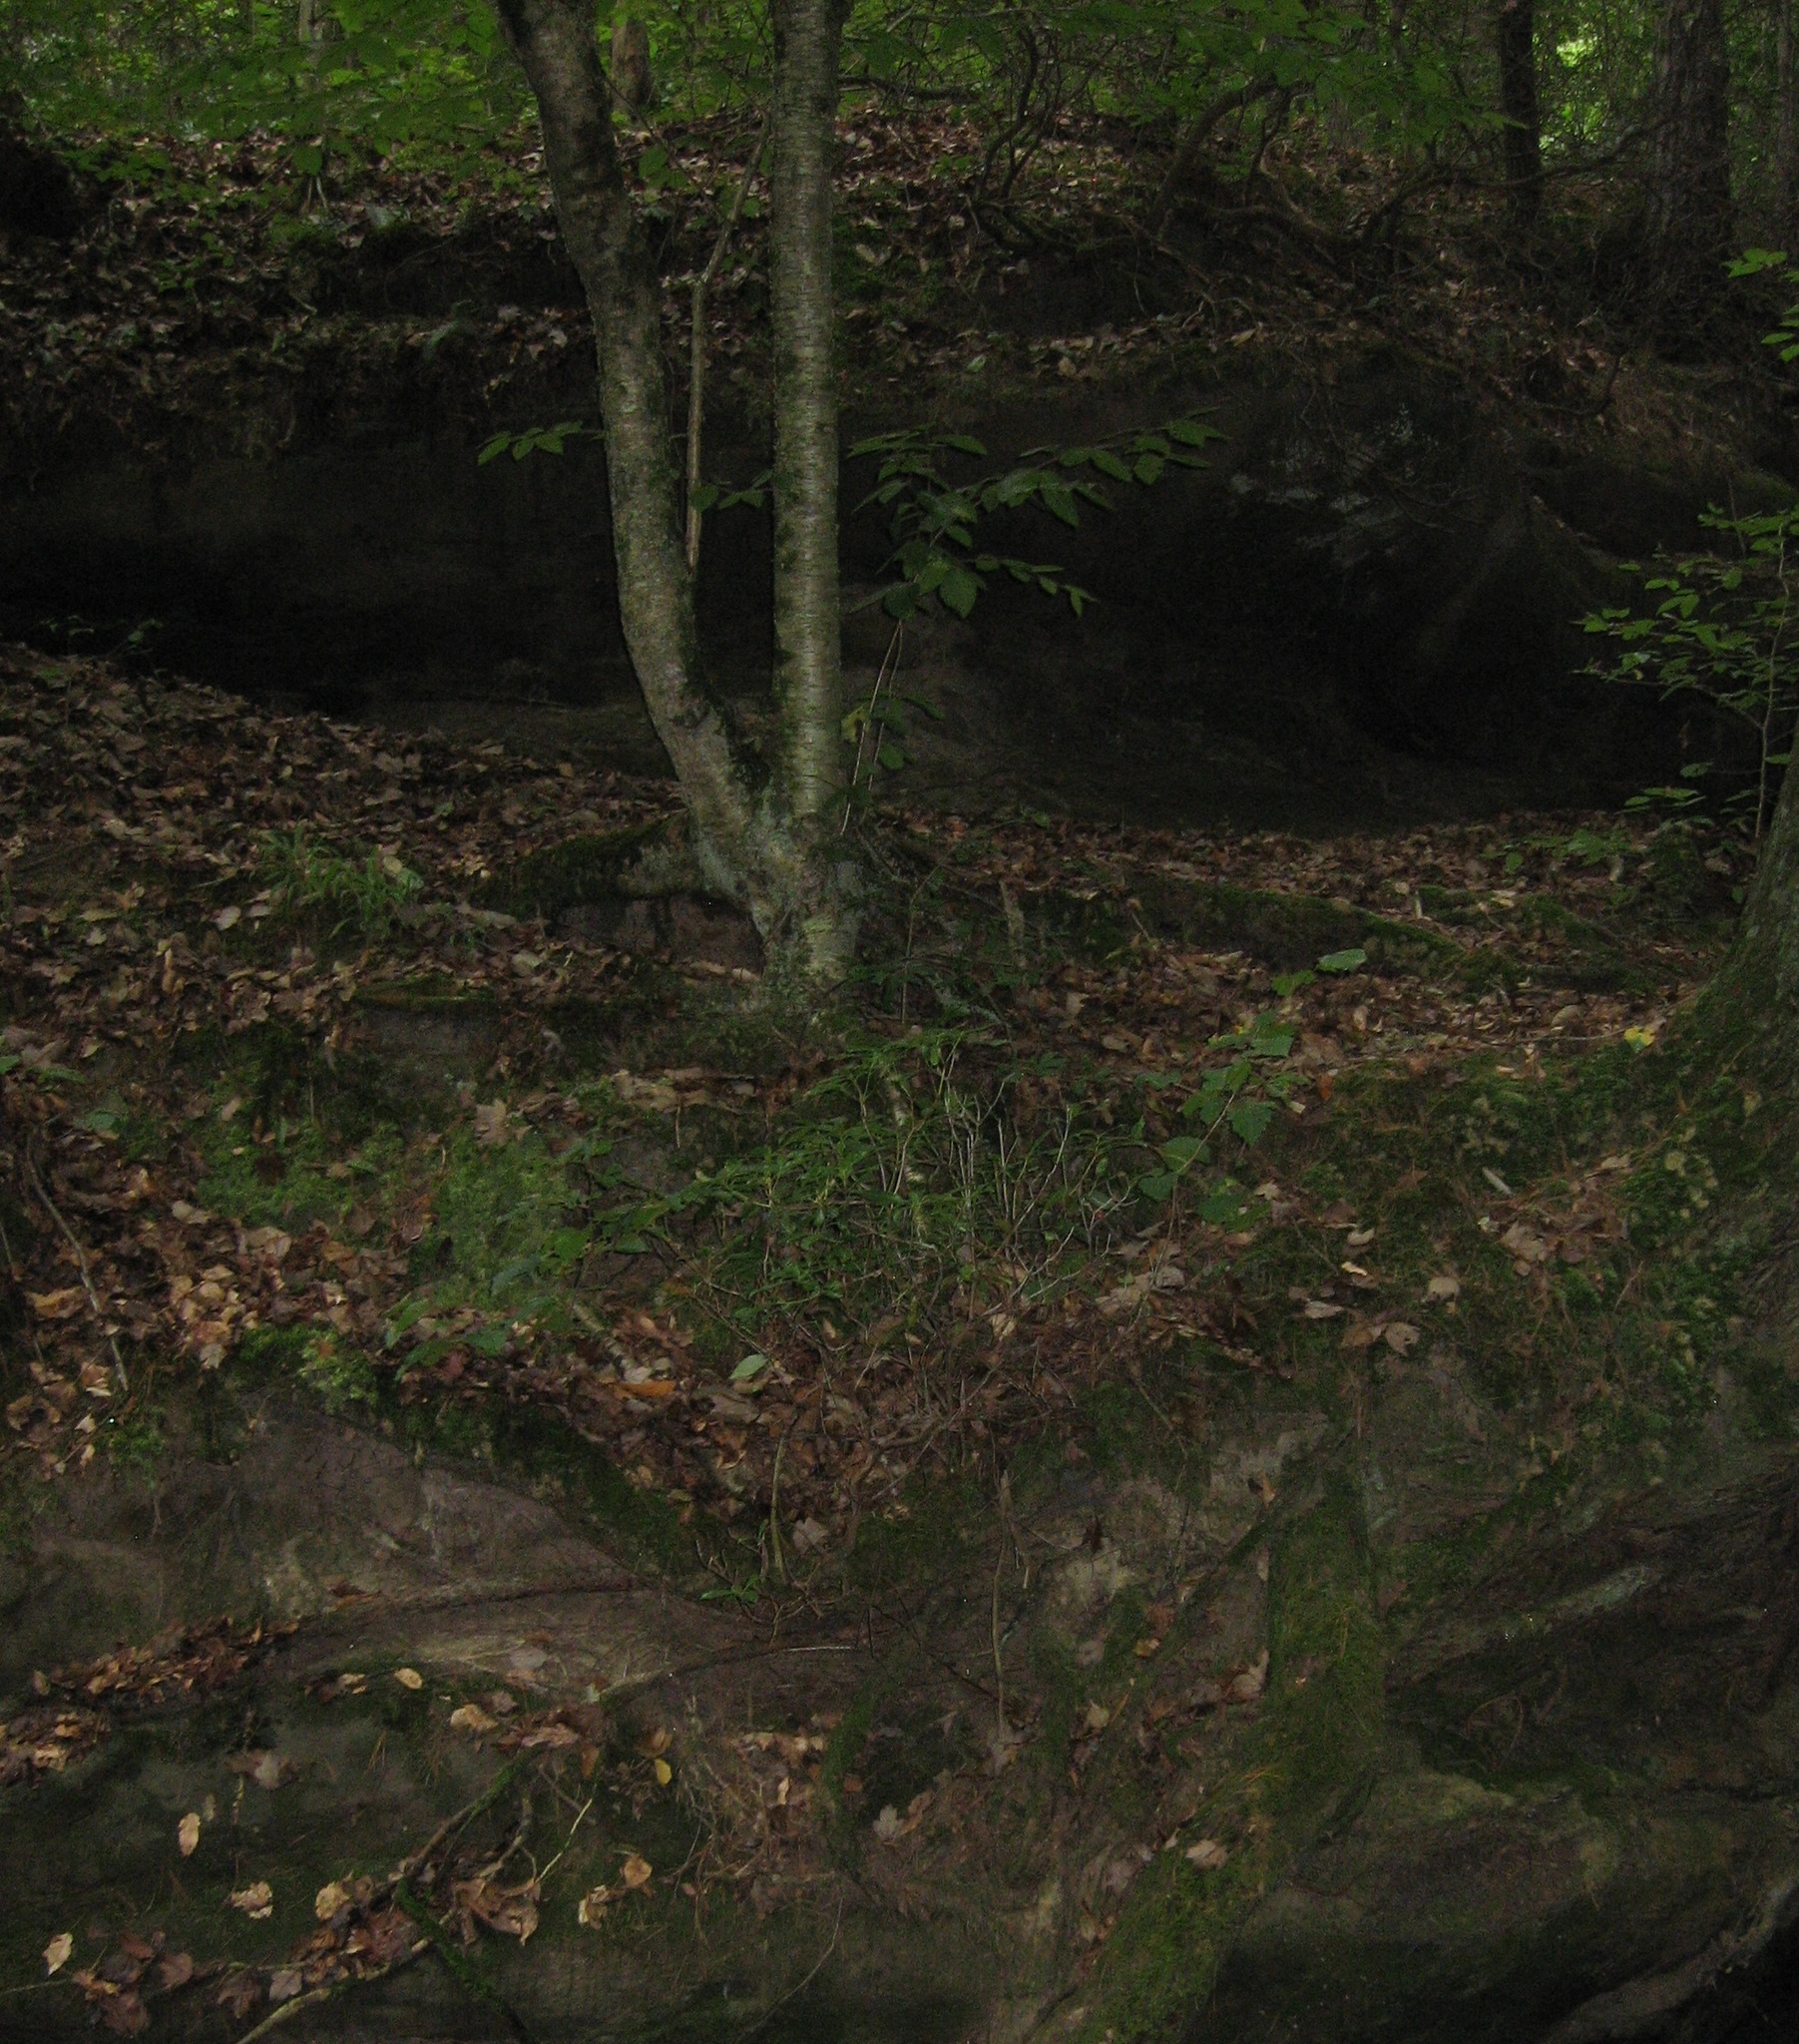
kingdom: Plantae
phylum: Tracheophyta
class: Magnoliopsida
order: Fagales
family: Betulaceae
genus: Betula
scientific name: Betula alleghaniensis
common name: Yellow birch
